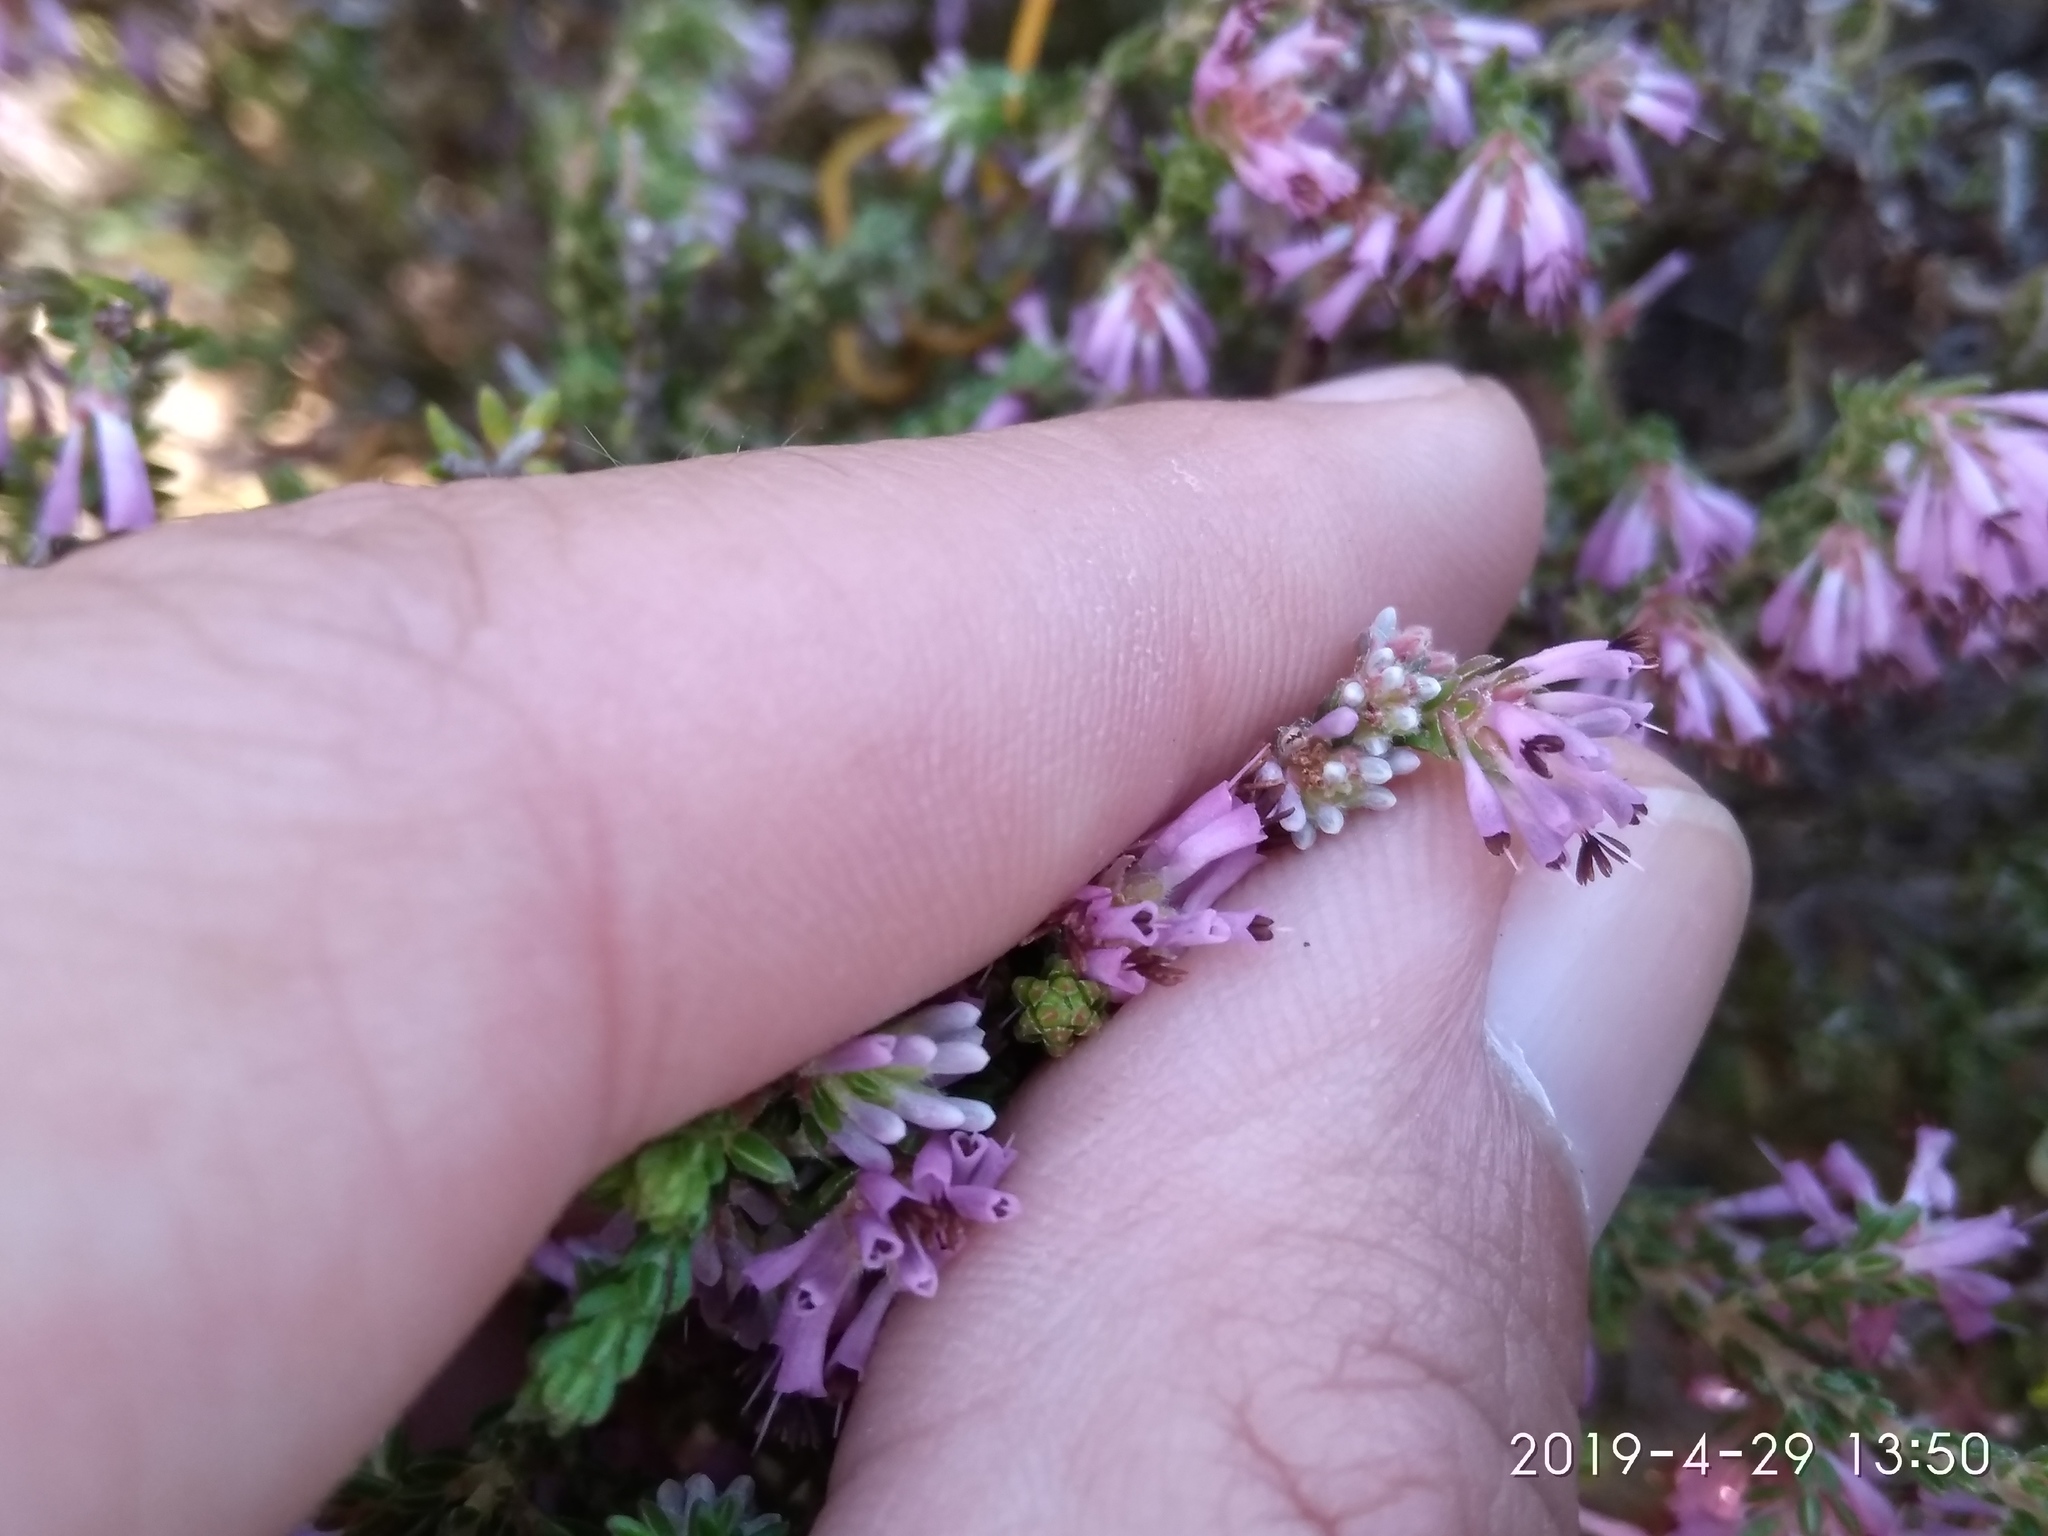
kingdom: Plantae
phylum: Tracheophyta
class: Magnoliopsida
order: Ericales
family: Ericaceae
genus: Erica
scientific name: Erica labialis
